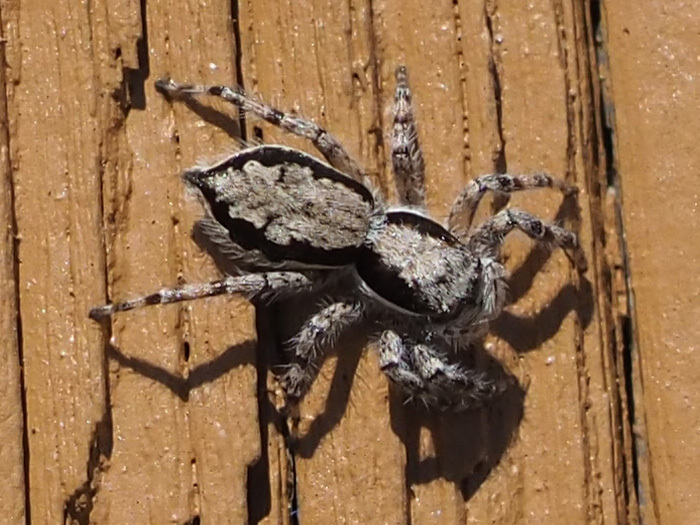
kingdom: Animalia
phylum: Arthropoda
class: Arachnida
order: Araneae
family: Salticidae
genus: Menemerus
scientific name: Menemerus bivittatus
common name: Gray wall jumper
